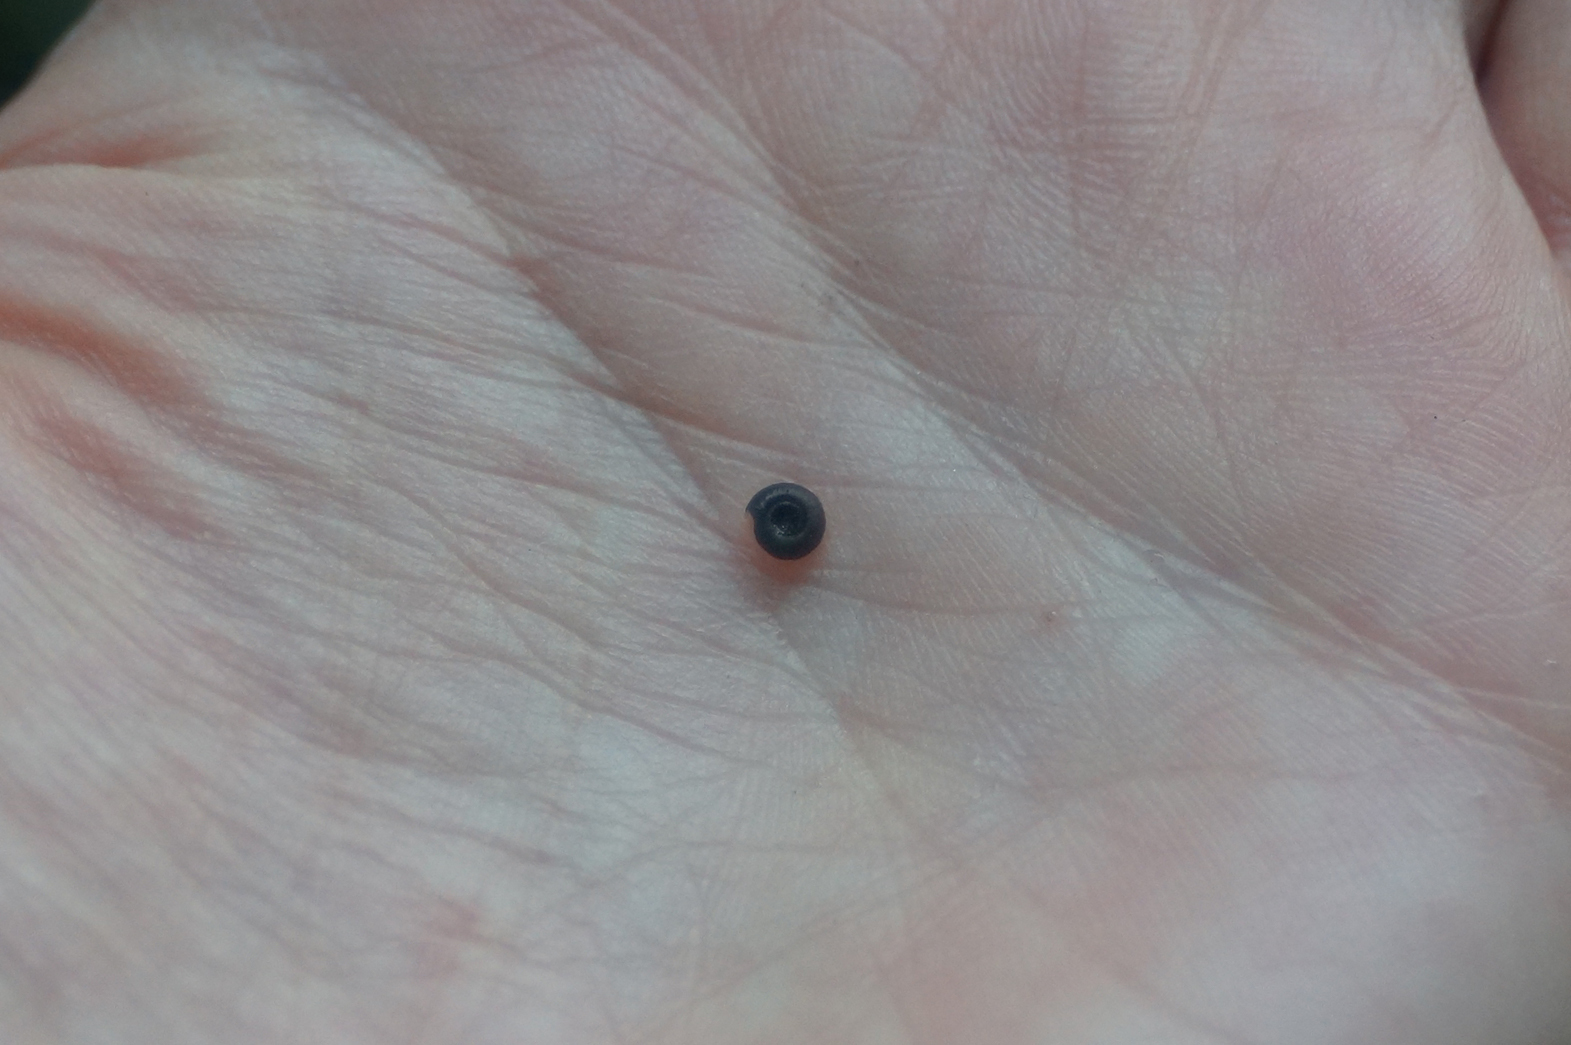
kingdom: Animalia
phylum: Mollusca
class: Gastropoda
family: Planorbidae
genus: Bathyomphalus
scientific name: Bathyomphalus contortus
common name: Twisted ramshorn
